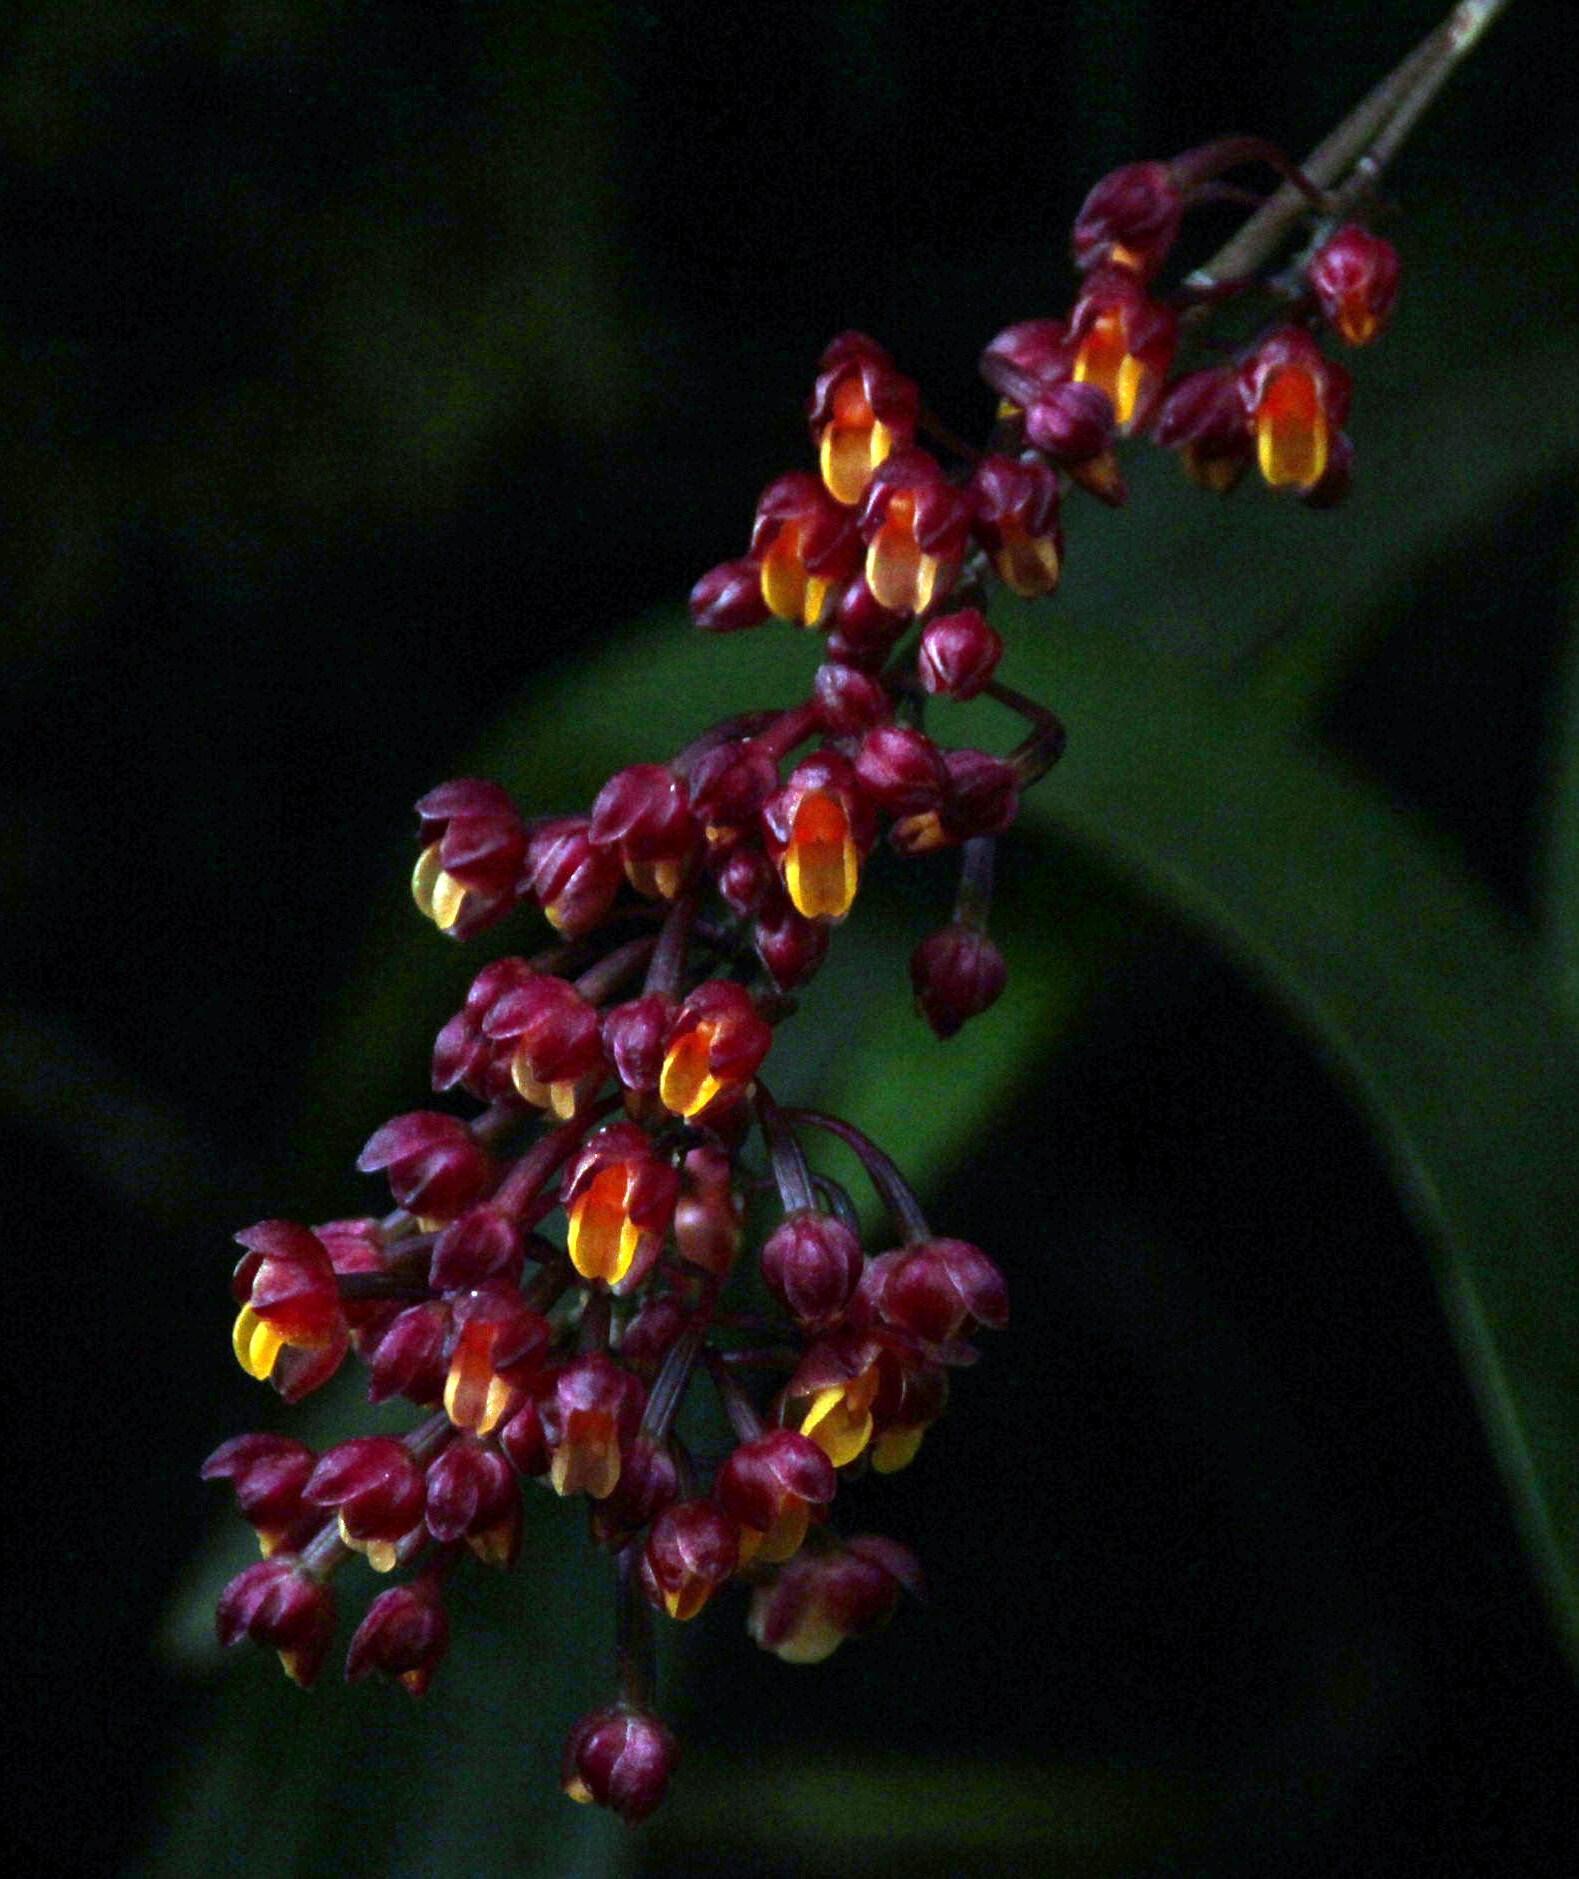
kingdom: Plantae
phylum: Tracheophyta
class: Liliopsida
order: Asparagales
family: Orchidaceae
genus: Cyrtochilum
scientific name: Cyrtochilum rhodoneurum
